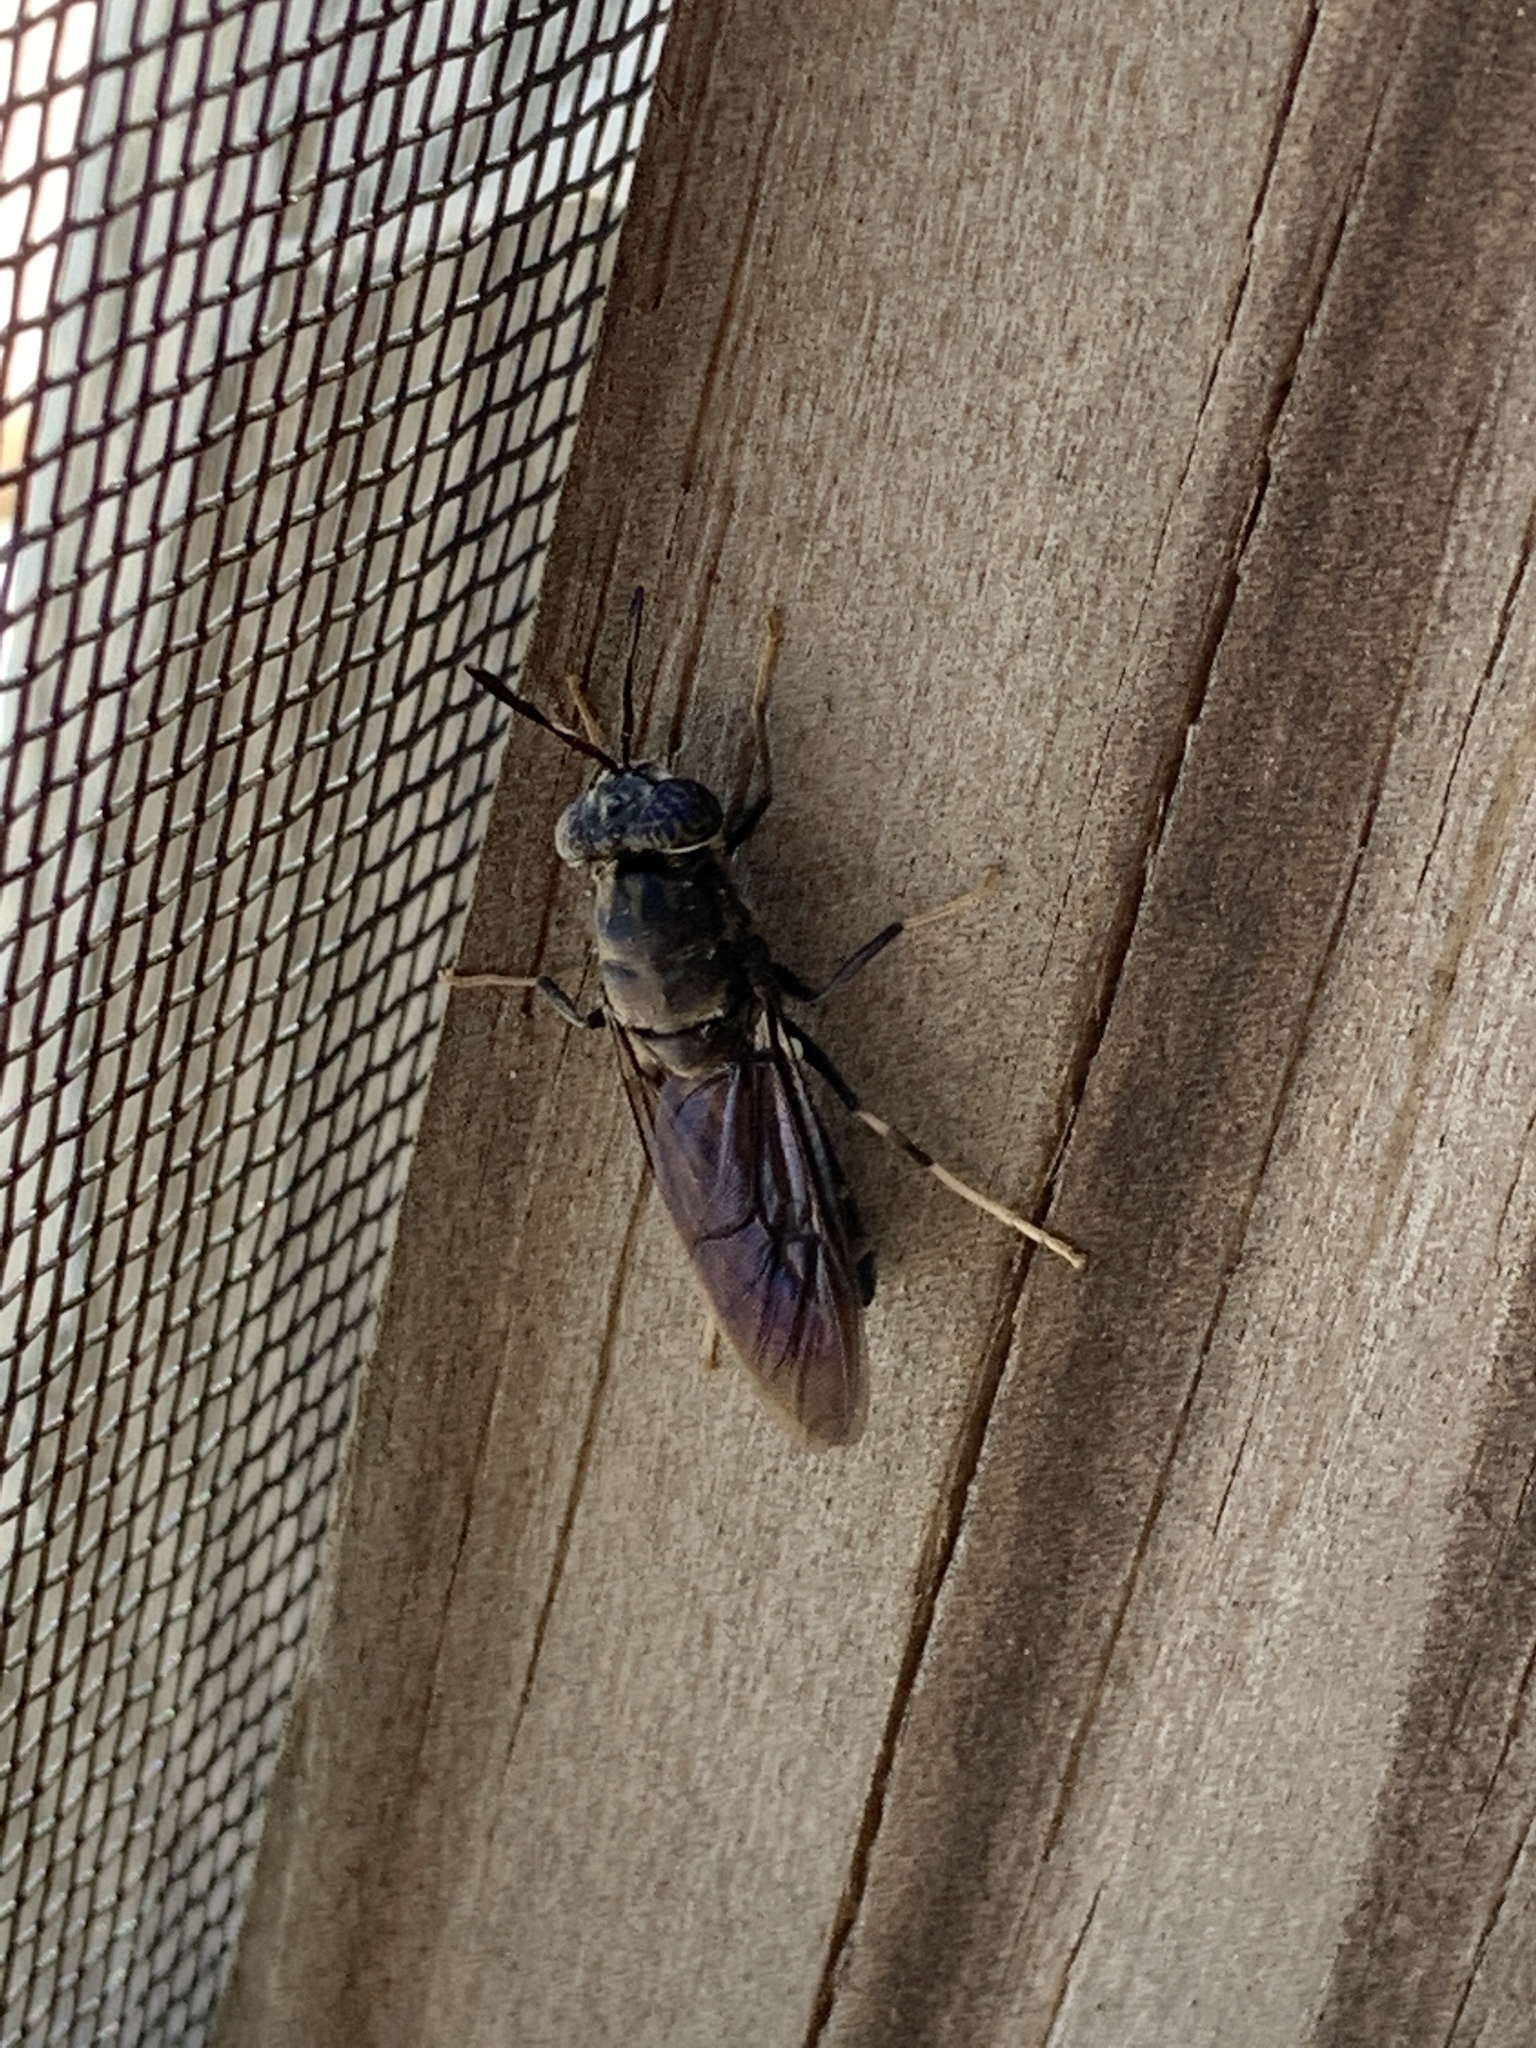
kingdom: Animalia
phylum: Arthropoda
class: Insecta
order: Diptera
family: Stratiomyidae
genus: Hermetia
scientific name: Hermetia illucens
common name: Black soldier fly
